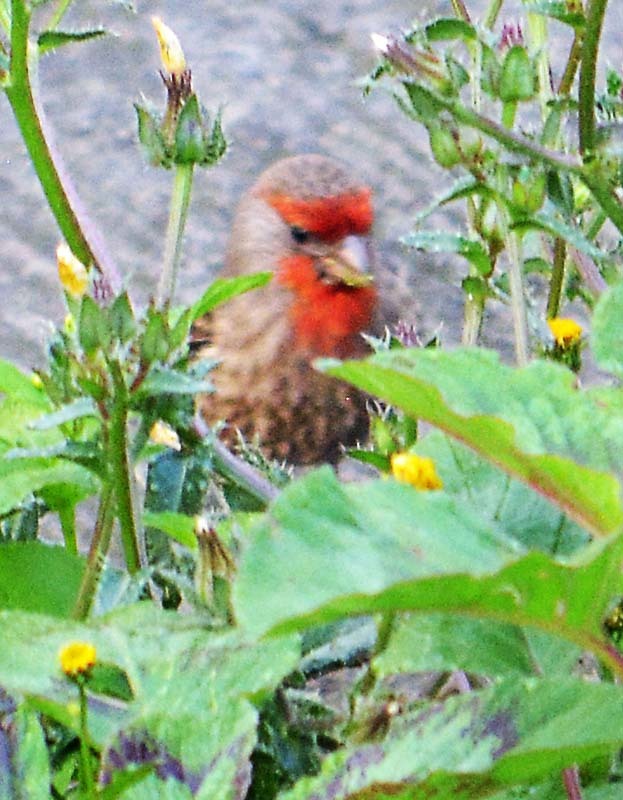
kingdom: Animalia
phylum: Chordata
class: Aves
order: Passeriformes
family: Fringillidae
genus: Haemorhous
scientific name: Haemorhous mexicanus
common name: House finch
